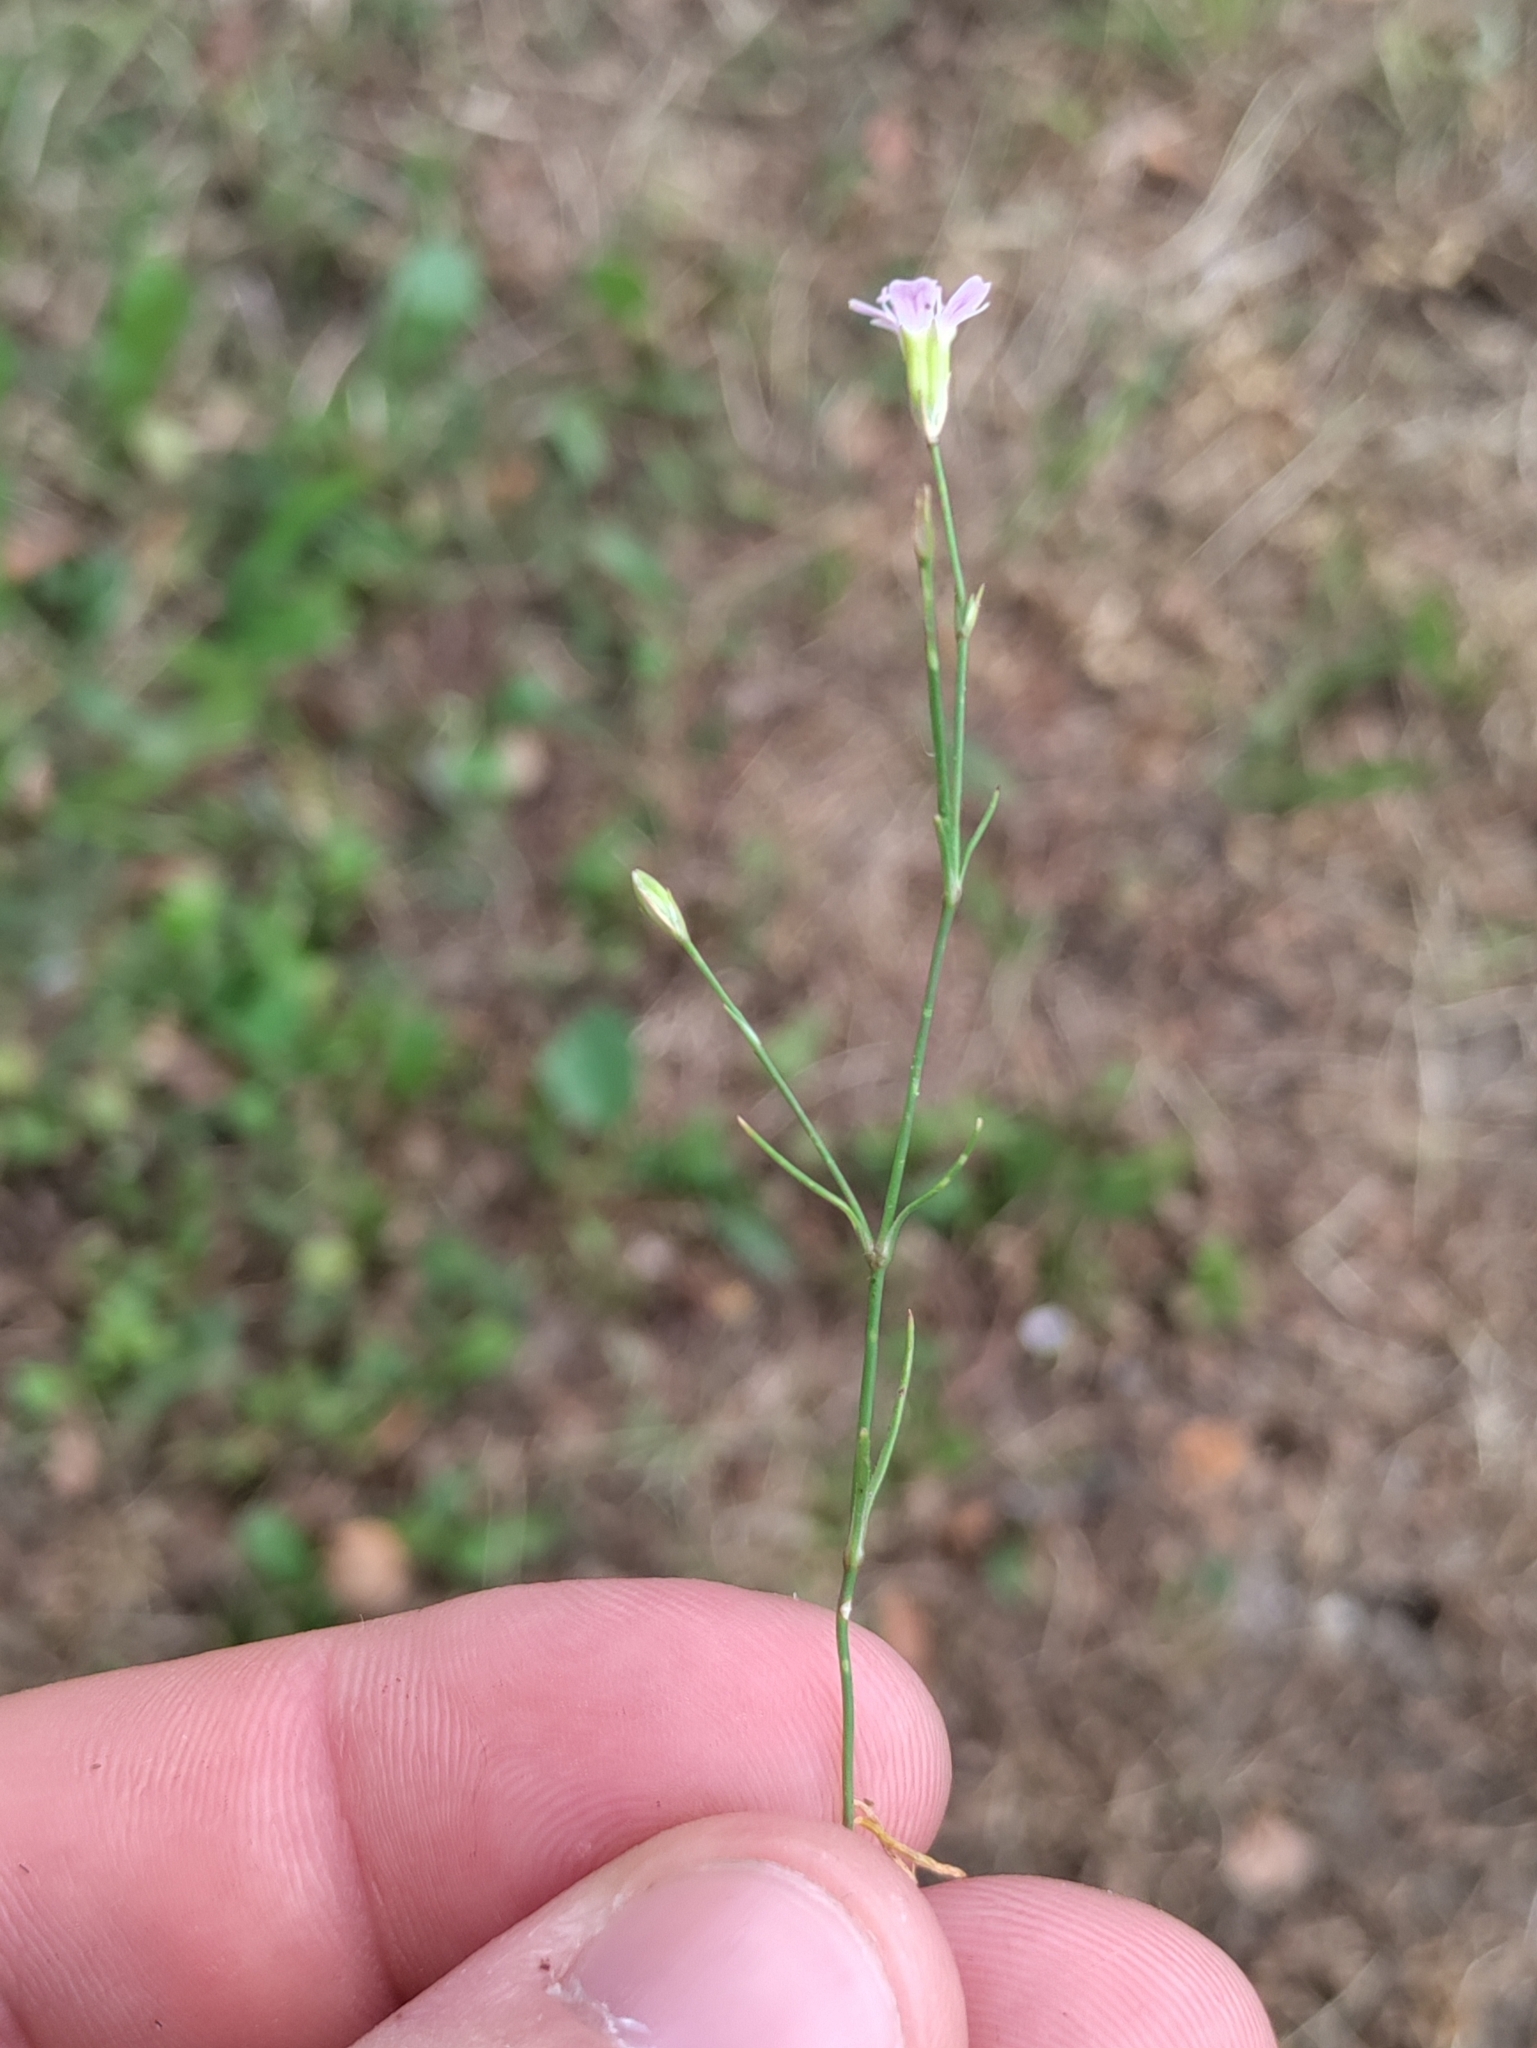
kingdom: Plantae
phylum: Tracheophyta
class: Magnoliopsida
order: Caryophyllales
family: Caryophyllaceae
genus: Petrorhagia
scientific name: Petrorhagia saxifraga
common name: Tunicflower
